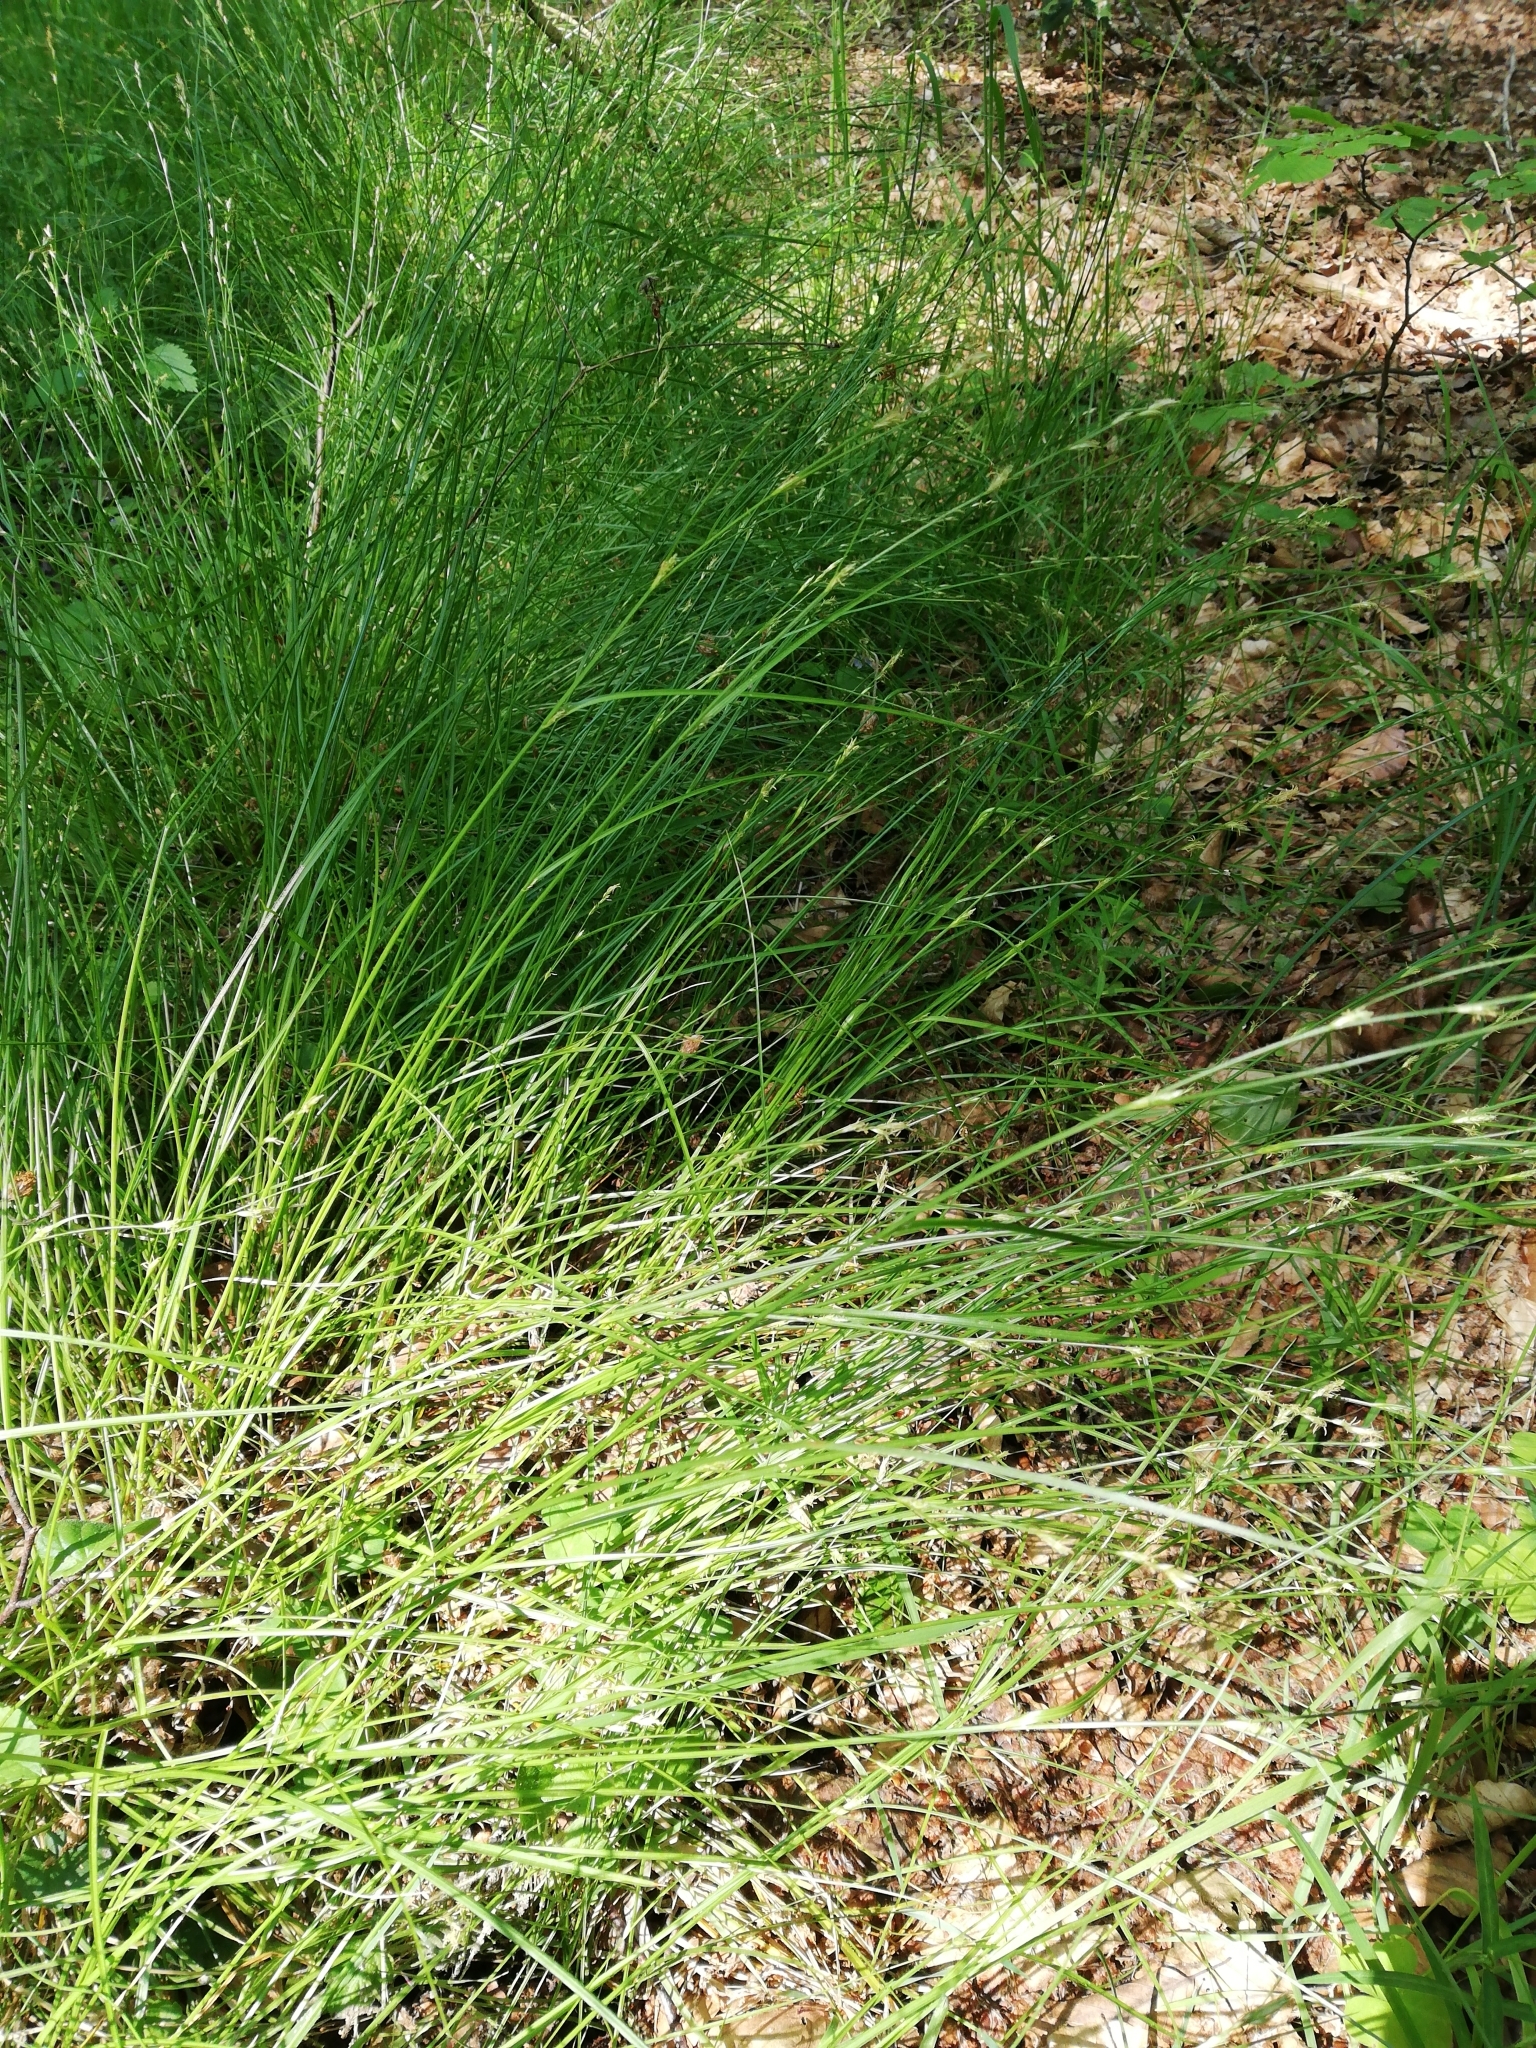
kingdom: Plantae
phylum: Tracheophyta
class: Liliopsida
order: Poales
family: Cyperaceae
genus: Carex
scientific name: Carex remota
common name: Remote sedge
